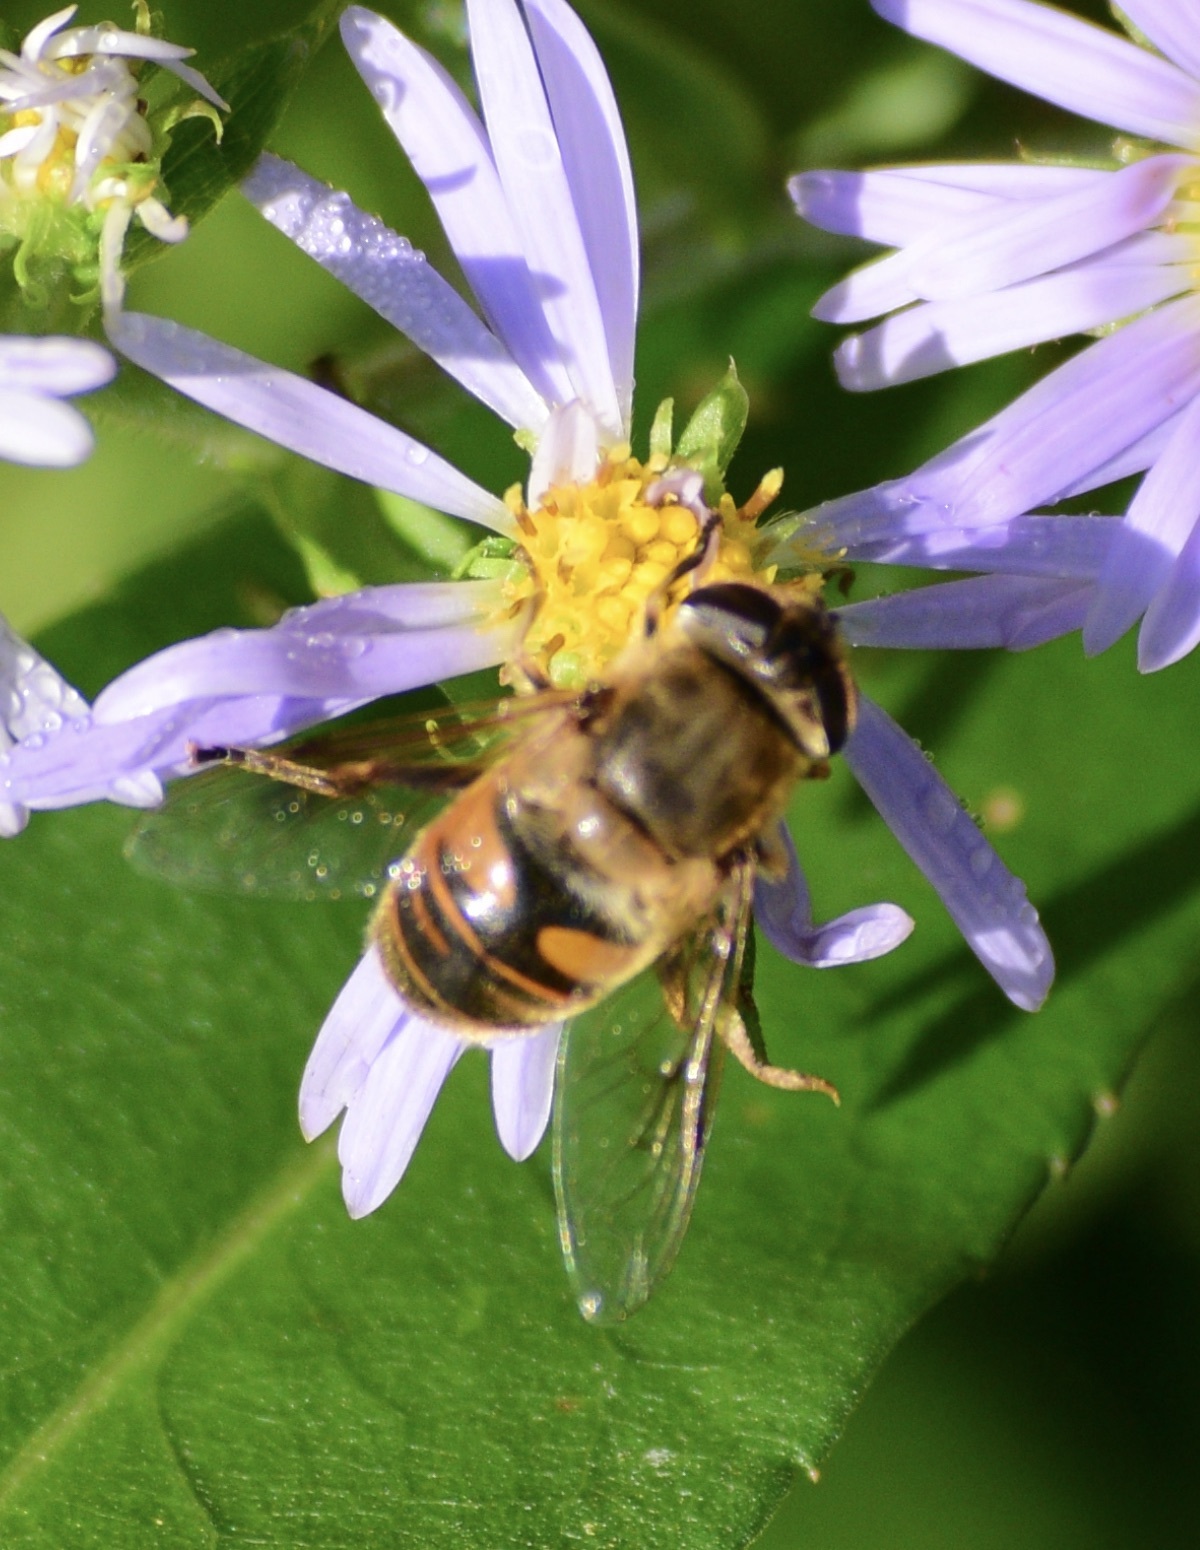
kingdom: Animalia
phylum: Arthropoda
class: Insecta
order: Diptera
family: Syrphidae
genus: Eristalis
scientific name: Eristalis tenax
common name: Drone fly
